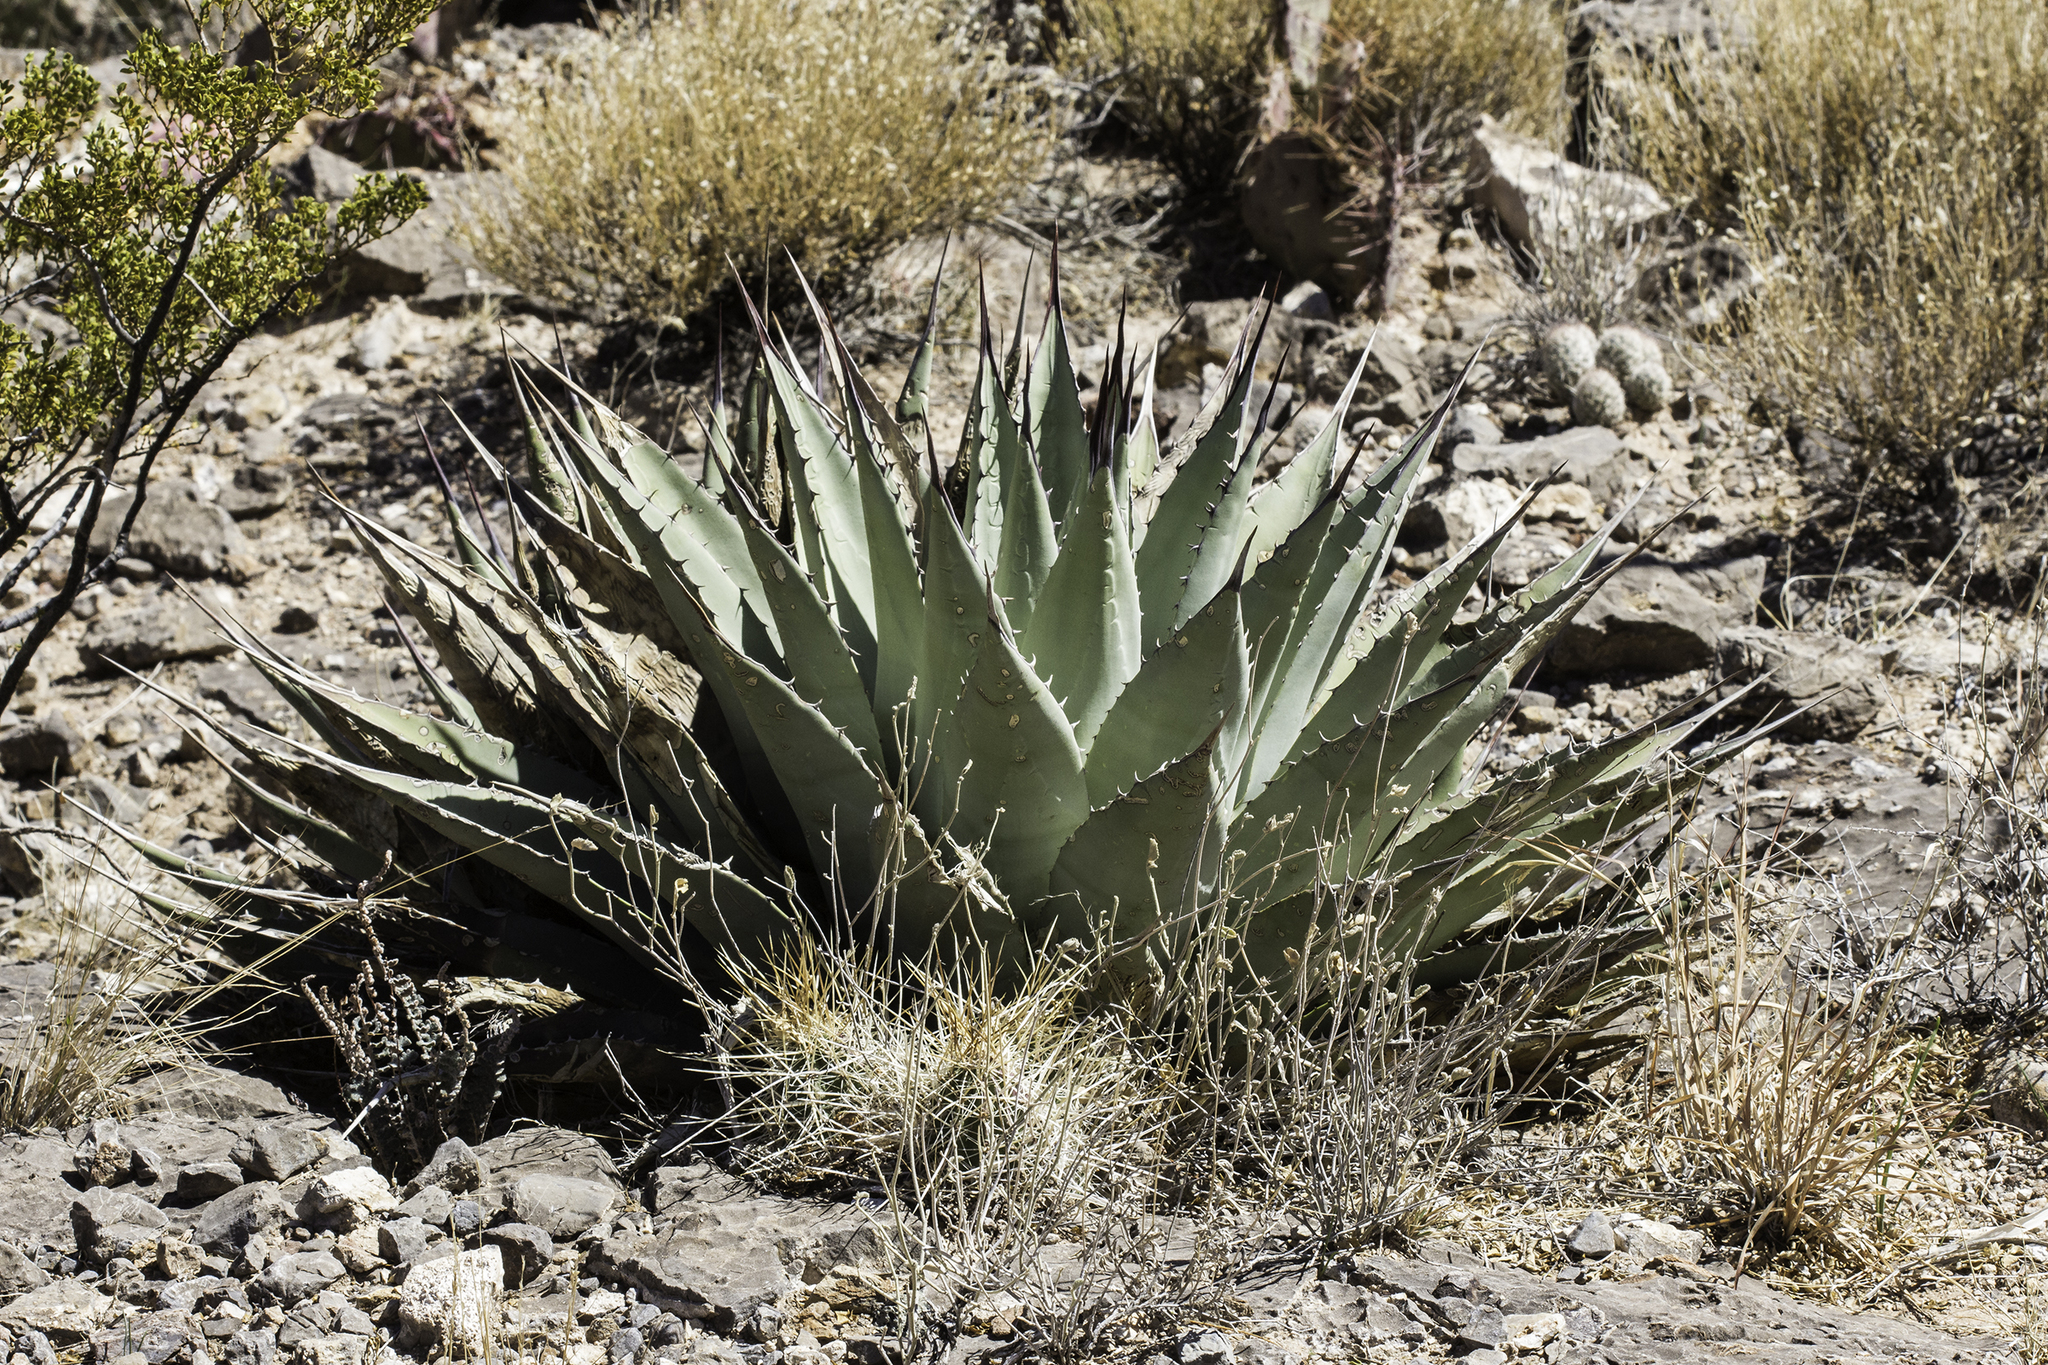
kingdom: Plantae
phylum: Tracheophyta
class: Liliopsida
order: Asparagales
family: Asparagaceae
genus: Agave
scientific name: Agave parryi
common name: Parry's agave
